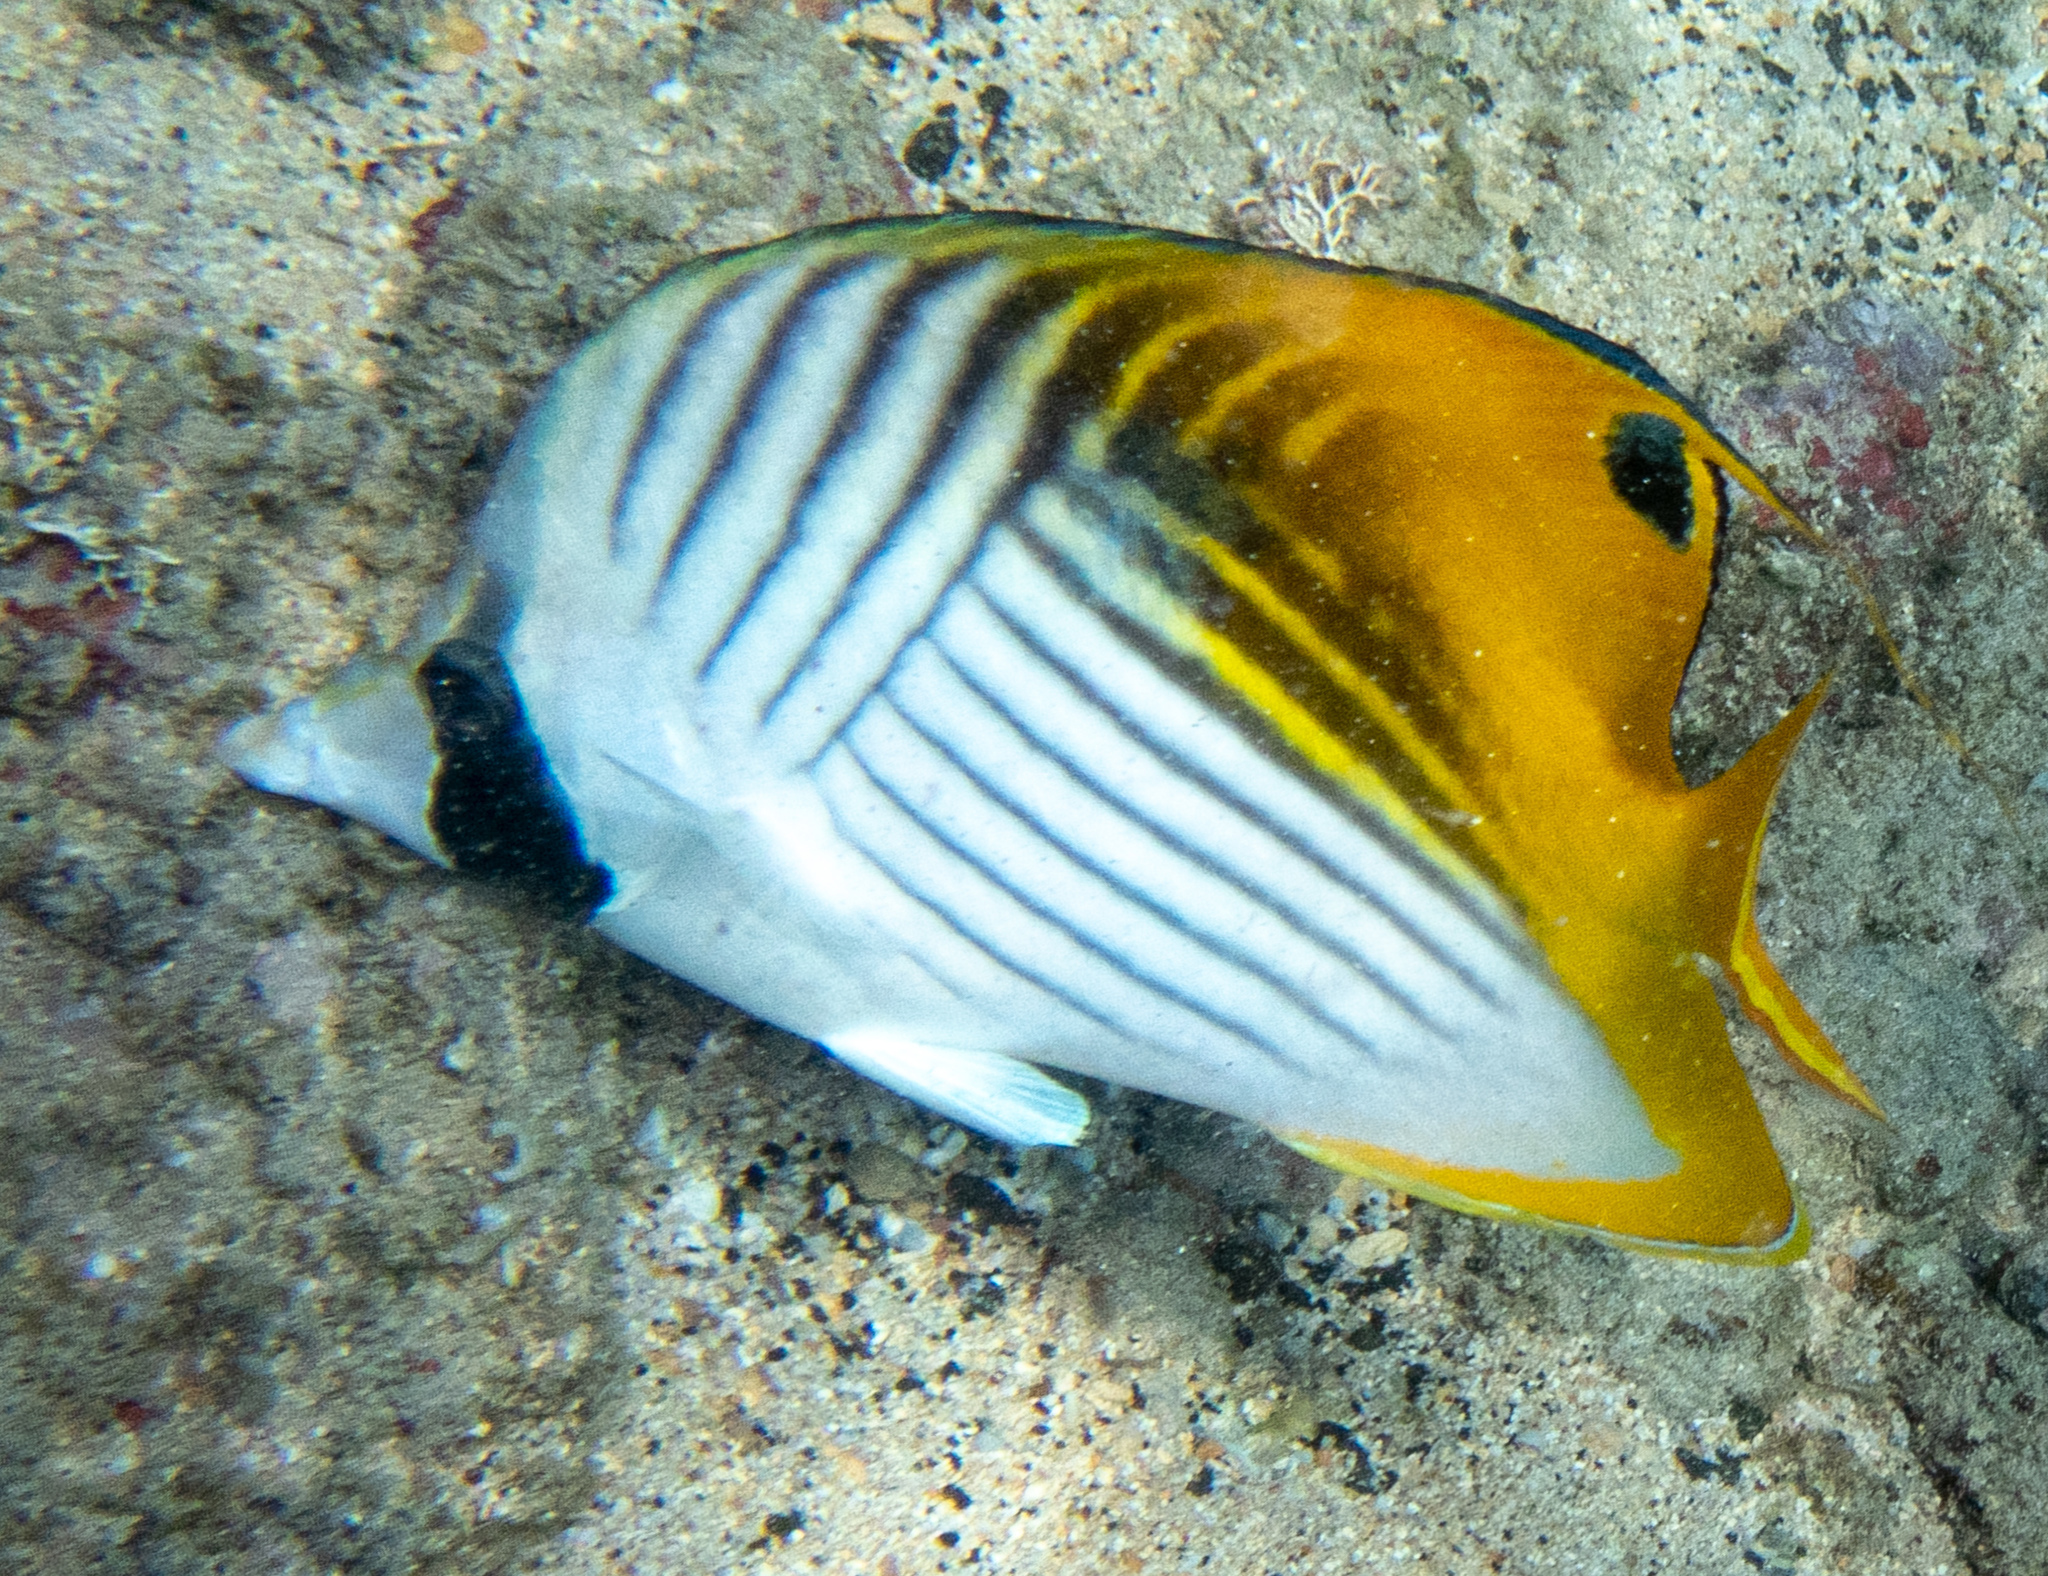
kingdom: Animalia
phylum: Chordata
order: Perciformes
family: Chaetodontidae
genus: Chaetodon
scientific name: Chaetodon auriga
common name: Threadfin butterflyfish
